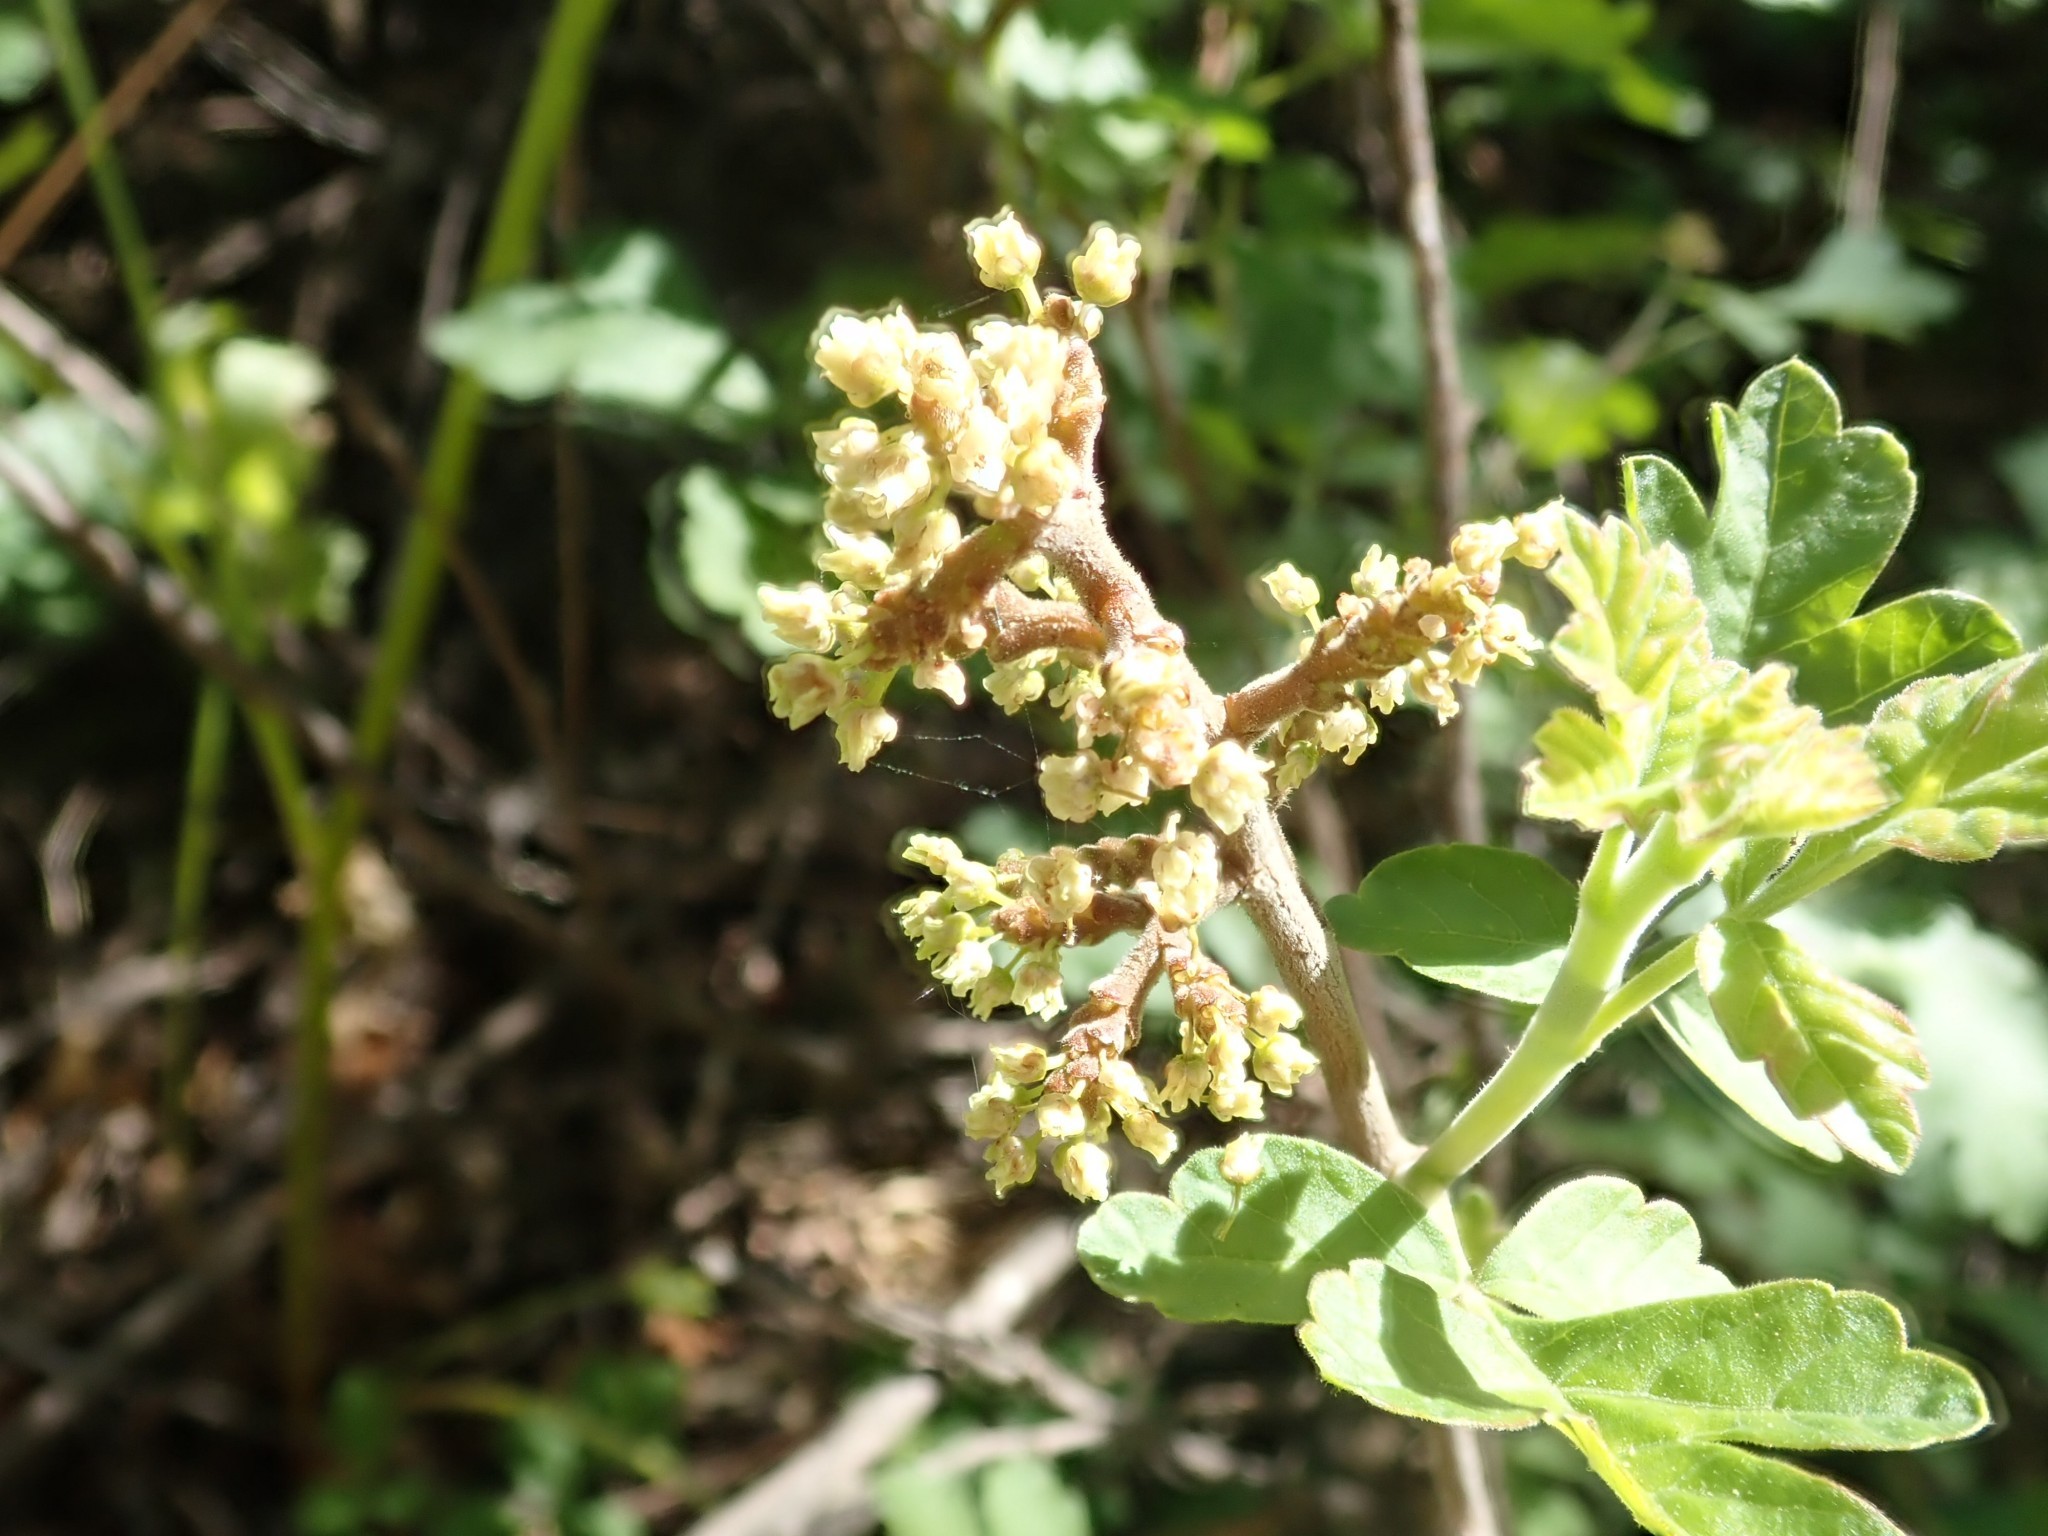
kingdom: Plantae
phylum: Tracheophyta
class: Magnoliopsida
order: Sapindales
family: Anacardiaceae
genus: Rhus
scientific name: Rhus aromatica
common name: Aromatic sumac
